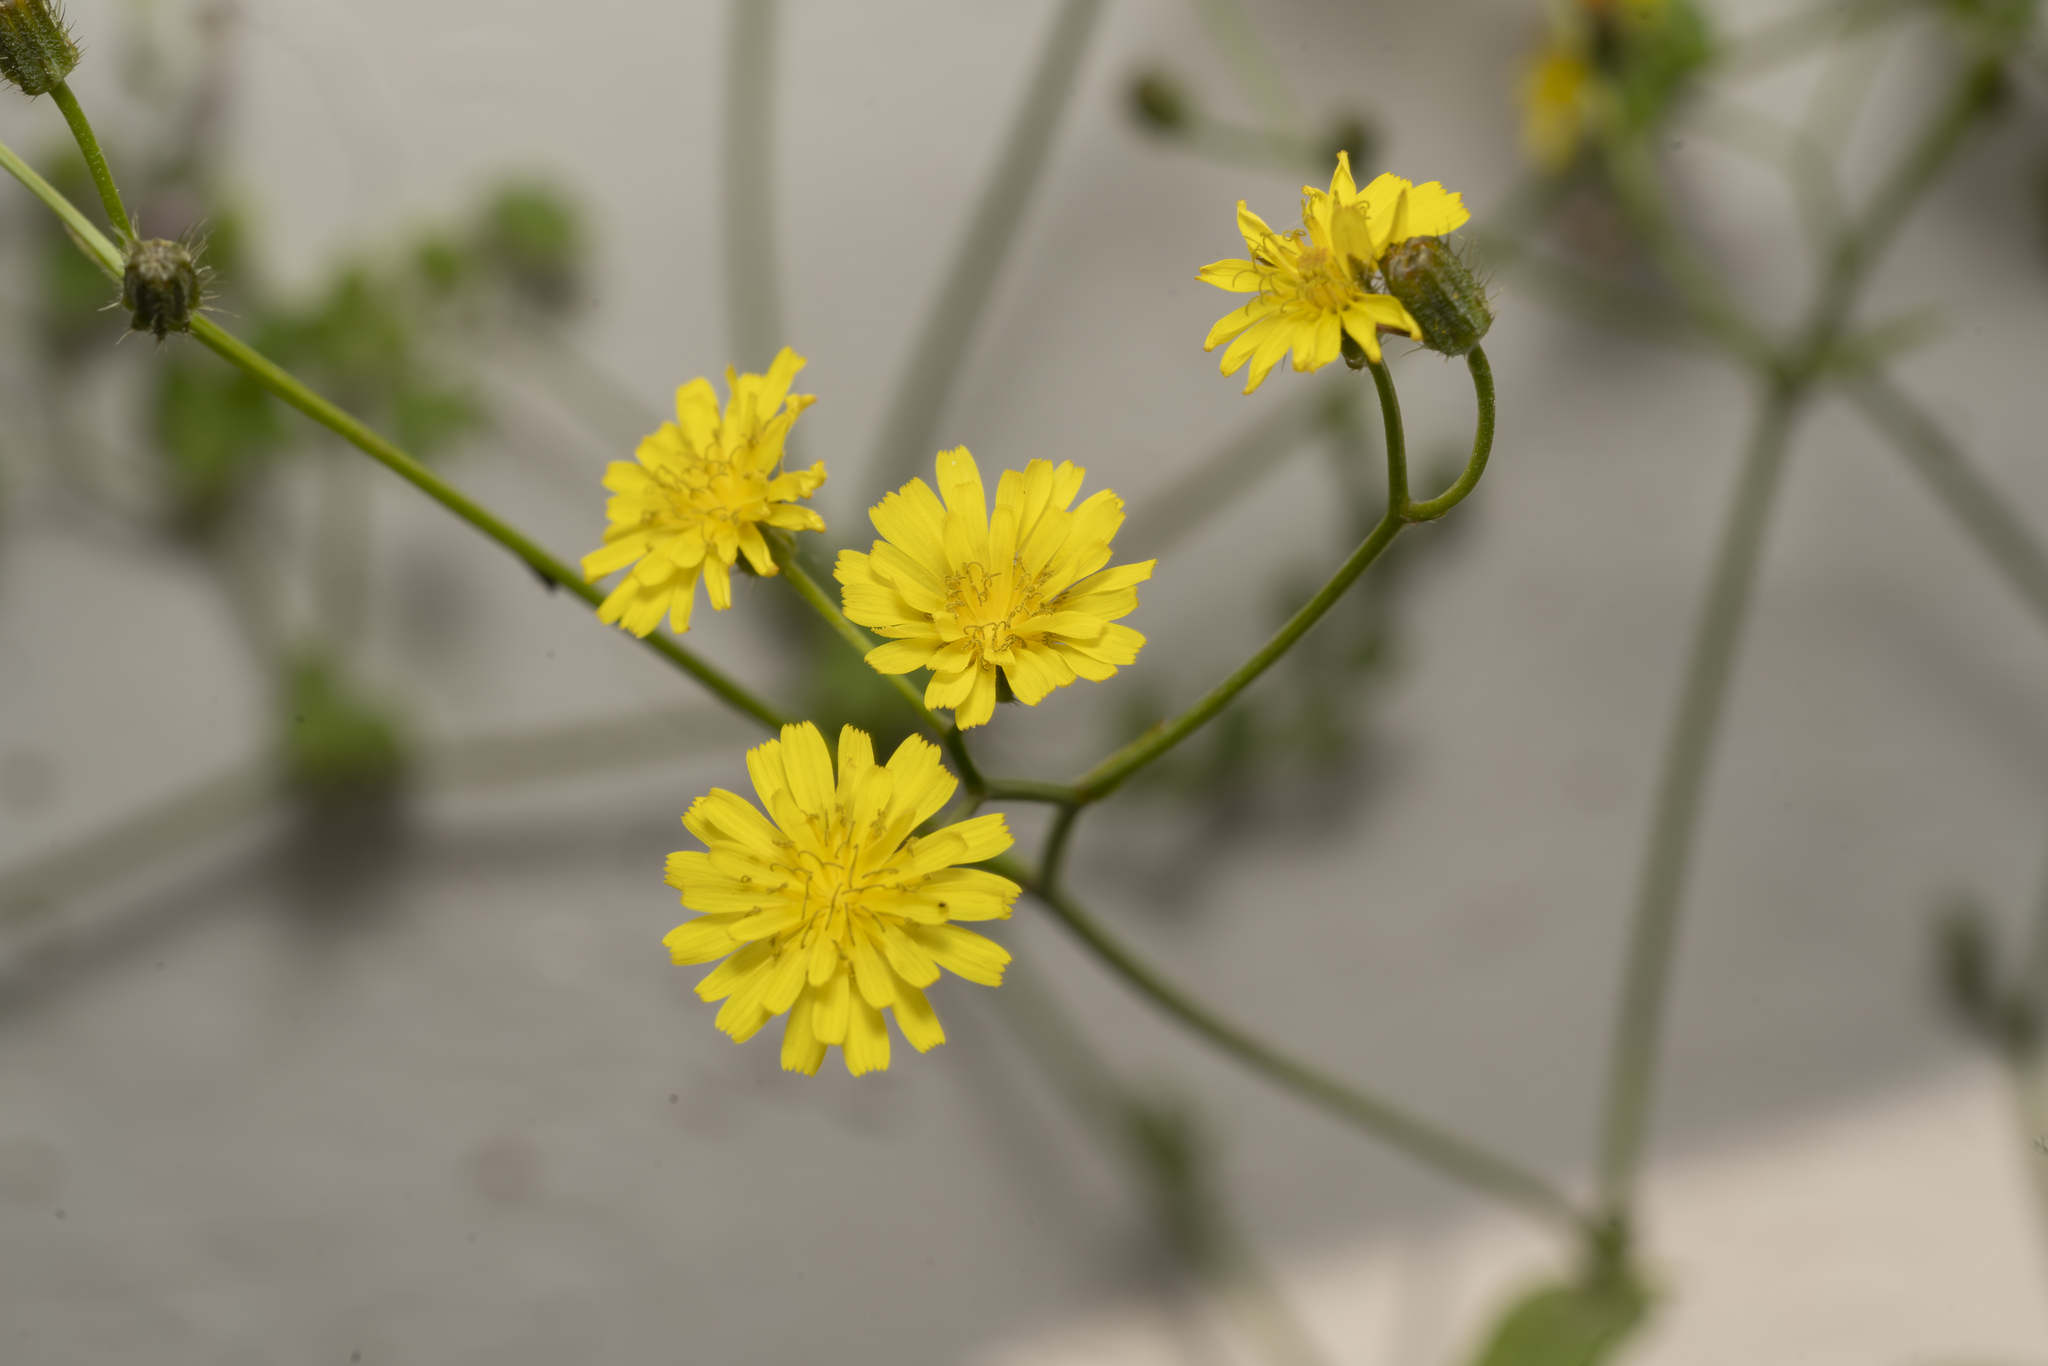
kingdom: Plantae
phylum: Tracheophyta
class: Magnoliopsida
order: Asterales
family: Asteraceae
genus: Crepis
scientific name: Crepis micrantha
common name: Hawk's-beard
